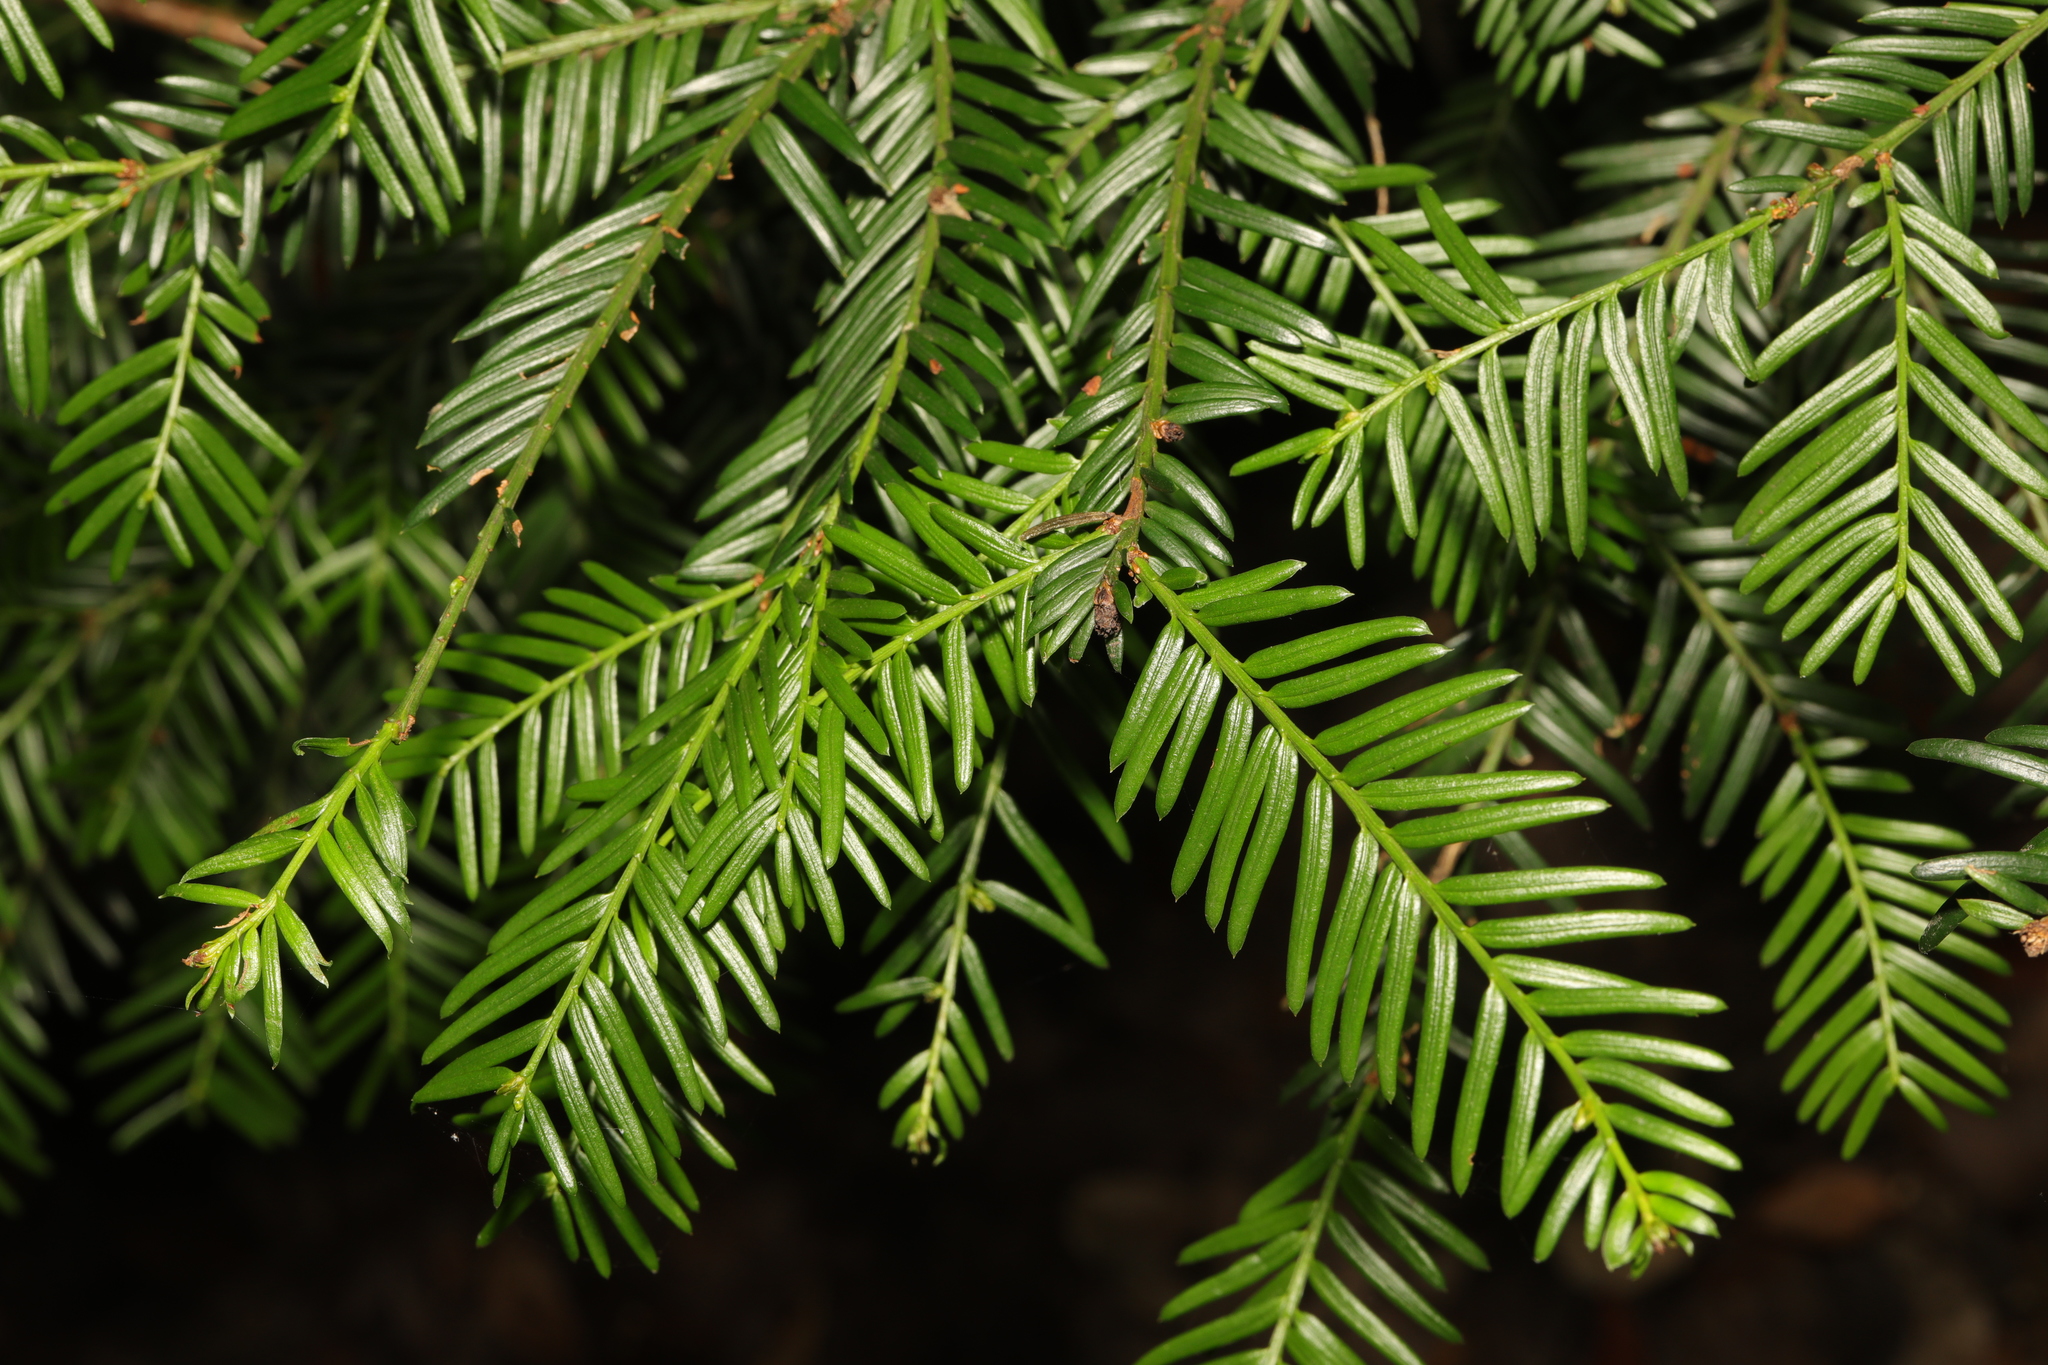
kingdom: Plantae
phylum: Tracheophyta
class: Pinopsida
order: Pinales
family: Taxaceae
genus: Taxus
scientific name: Taxus baccata
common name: Yew
